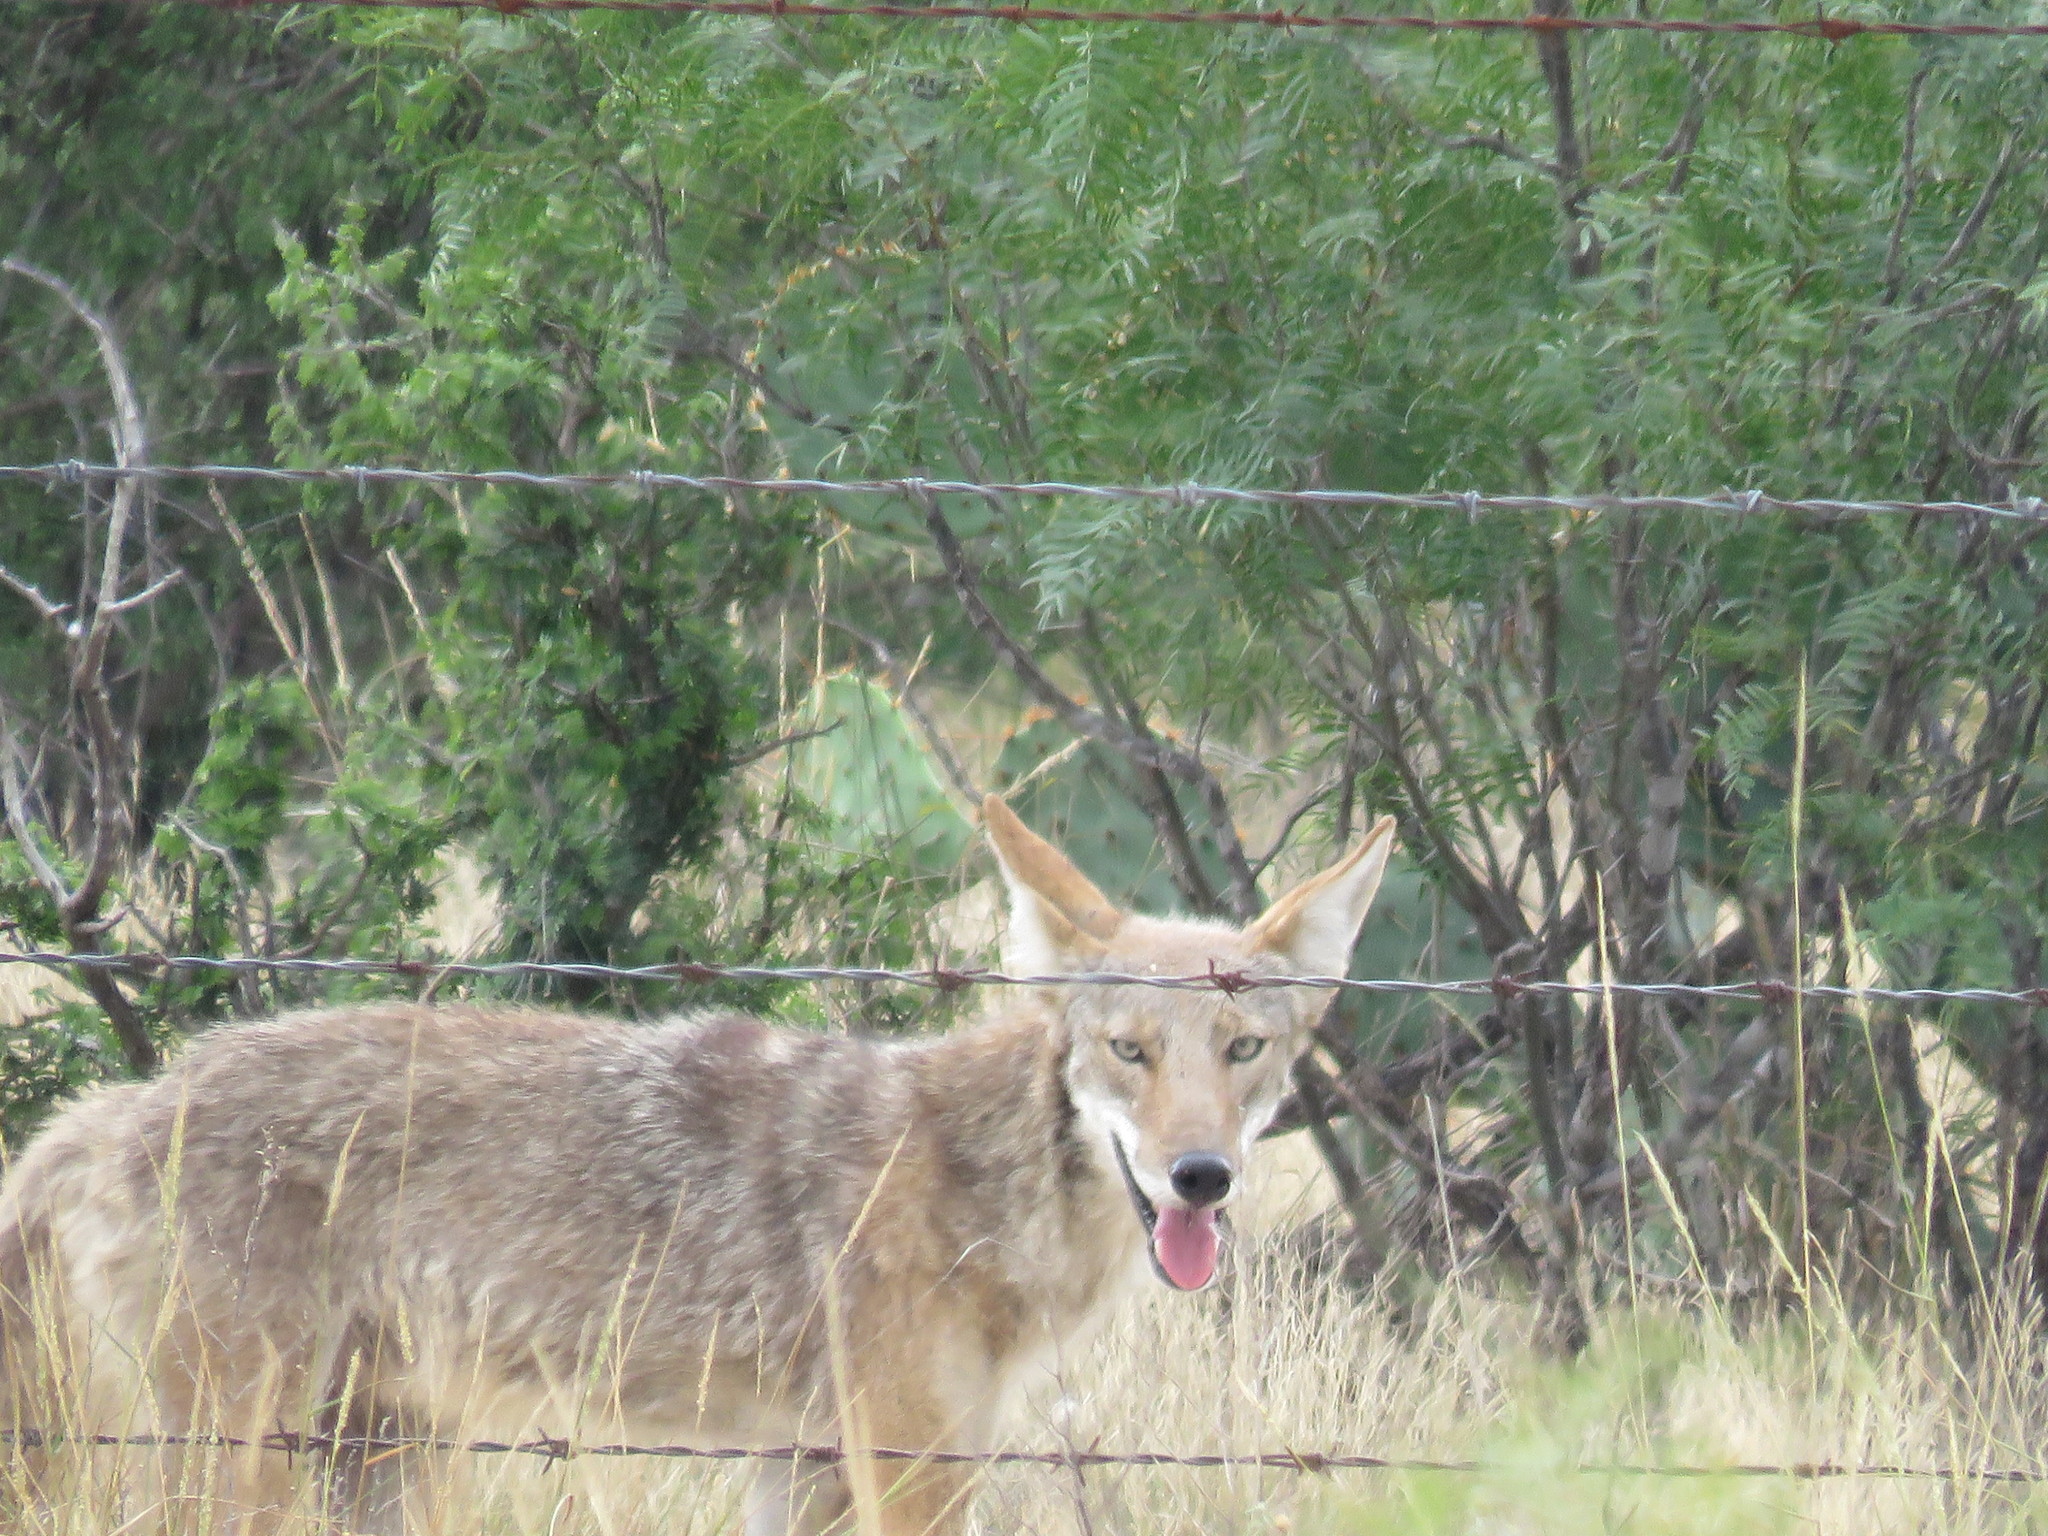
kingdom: Animalia
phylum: Chordata
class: Mammalia
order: Carnivora
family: Canidae
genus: Canis
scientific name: Canis latrans
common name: Coyote
